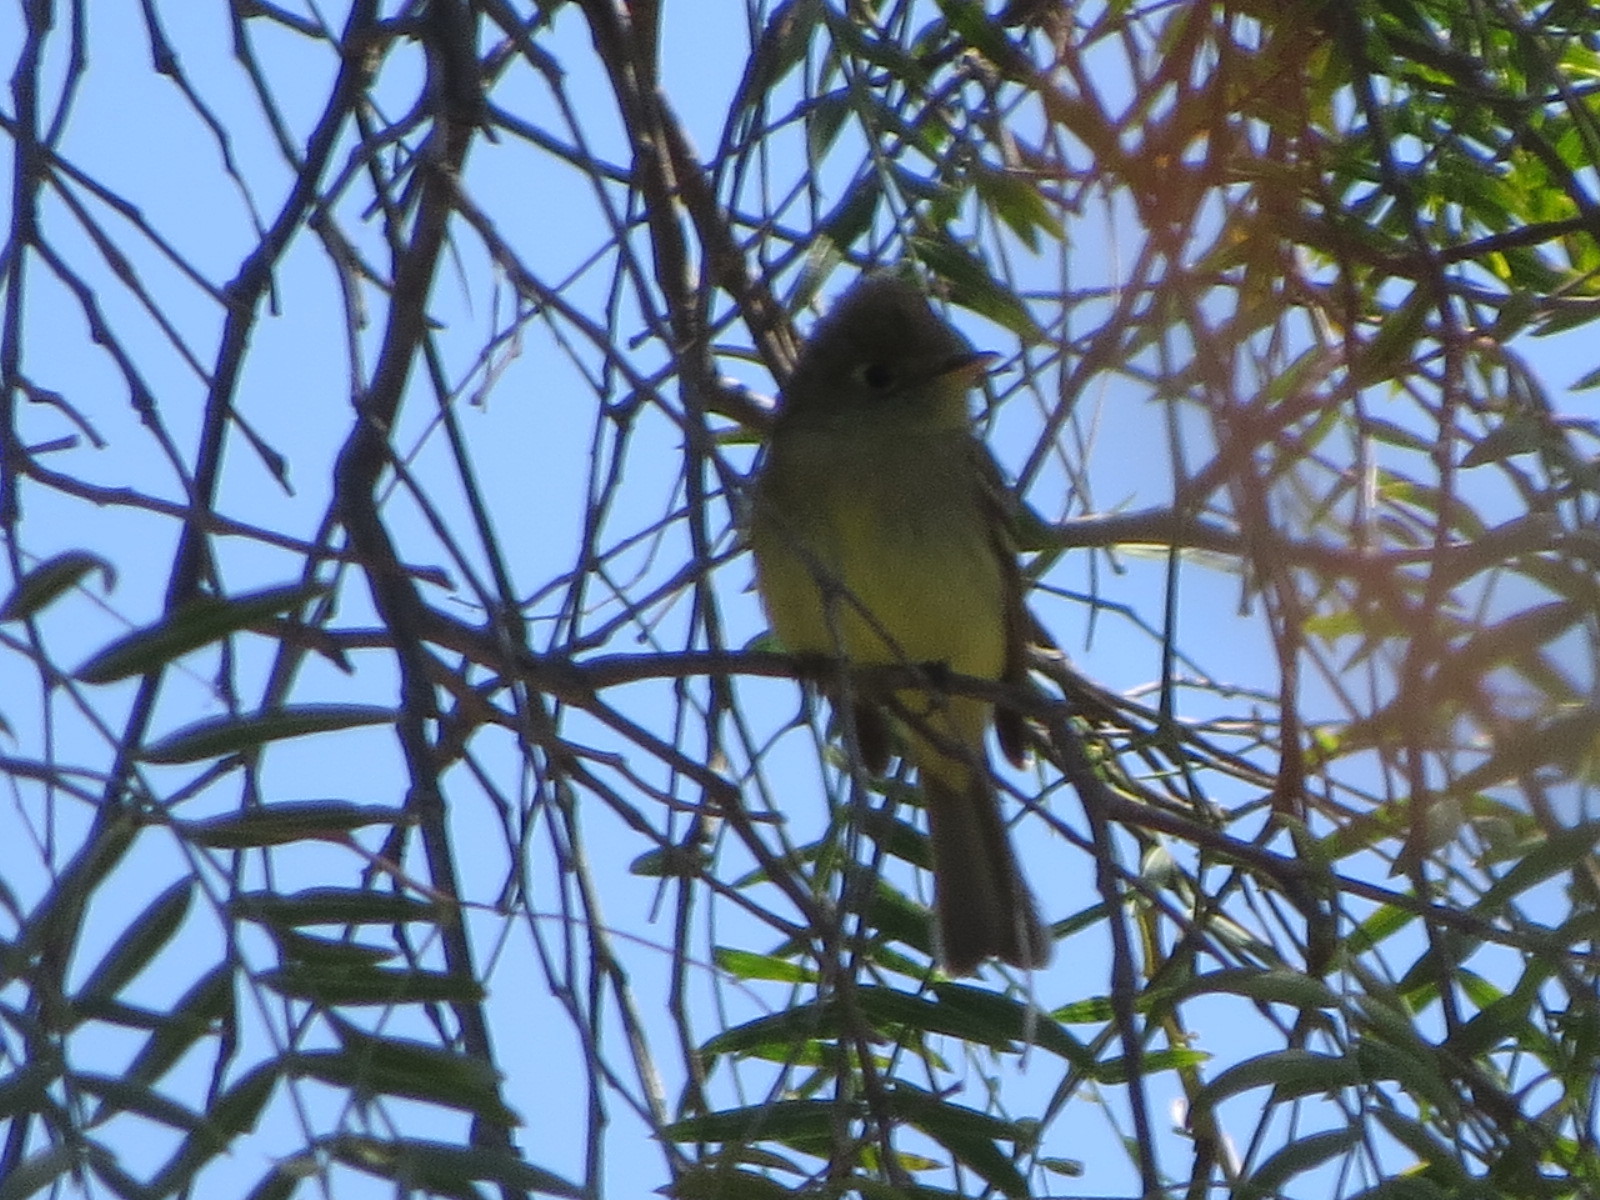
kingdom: Animalia
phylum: Chordata
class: Aves
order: Passeriformes
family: Tyrannidae
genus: Empidonax
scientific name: Empidonax difficilis
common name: Pacific-slope flycatcher
